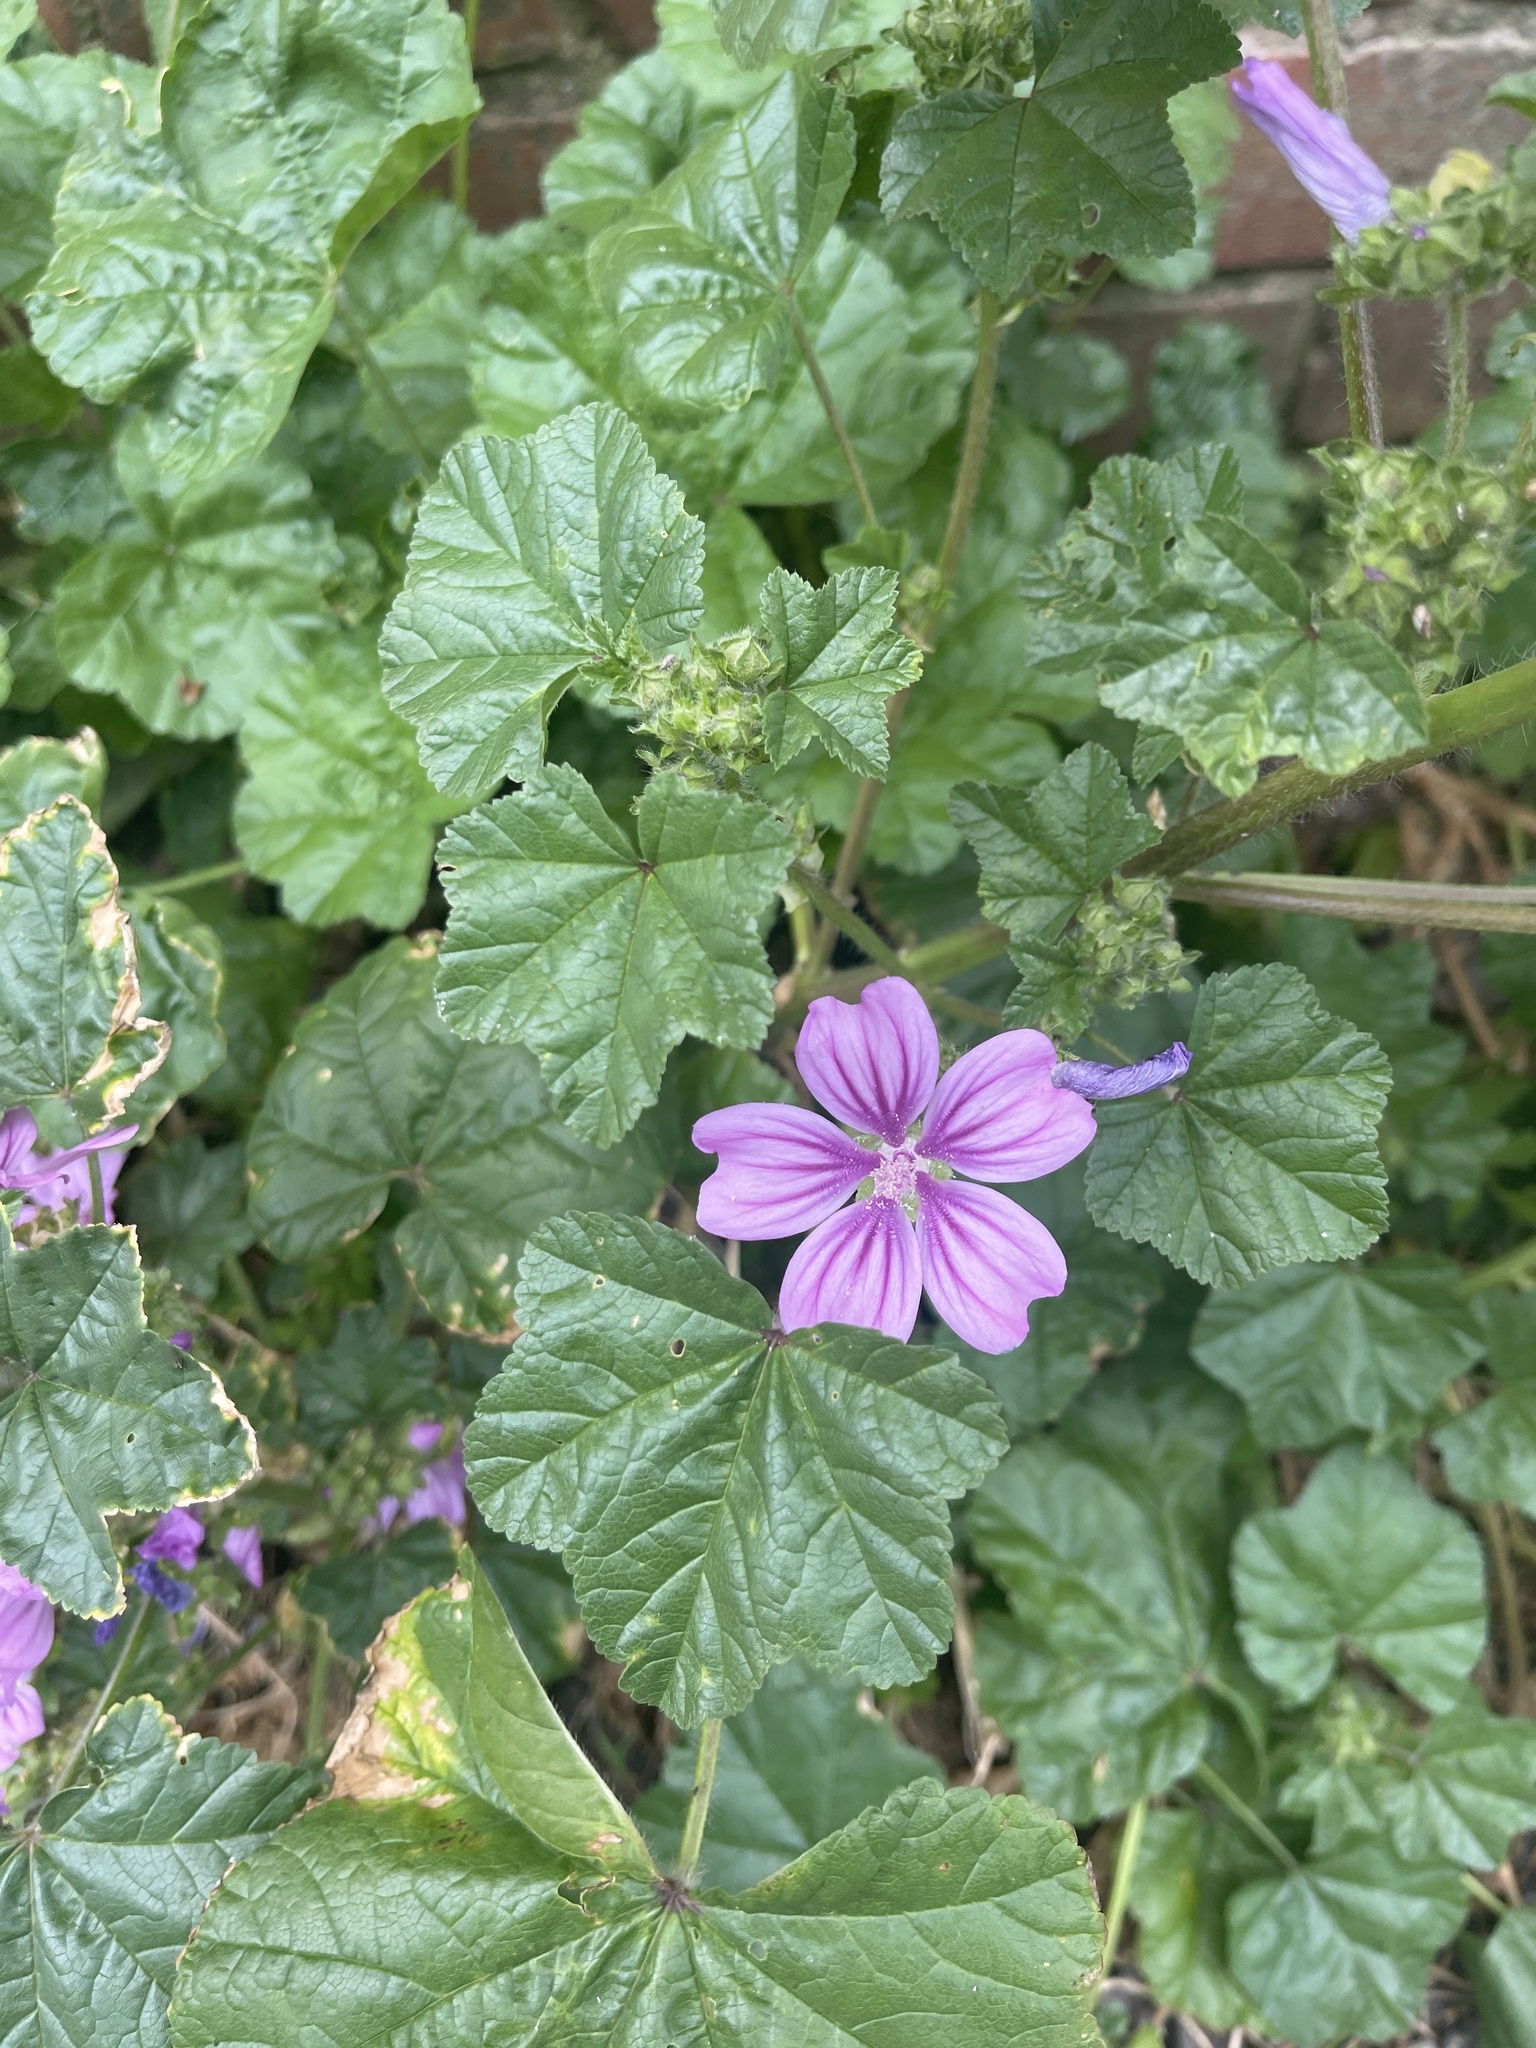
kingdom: Plantae
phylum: Tracheophyta
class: Magnoliopsida
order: Malvales
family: Malvaceae
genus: Malva
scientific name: Malva sylvestris
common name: Common mallow
